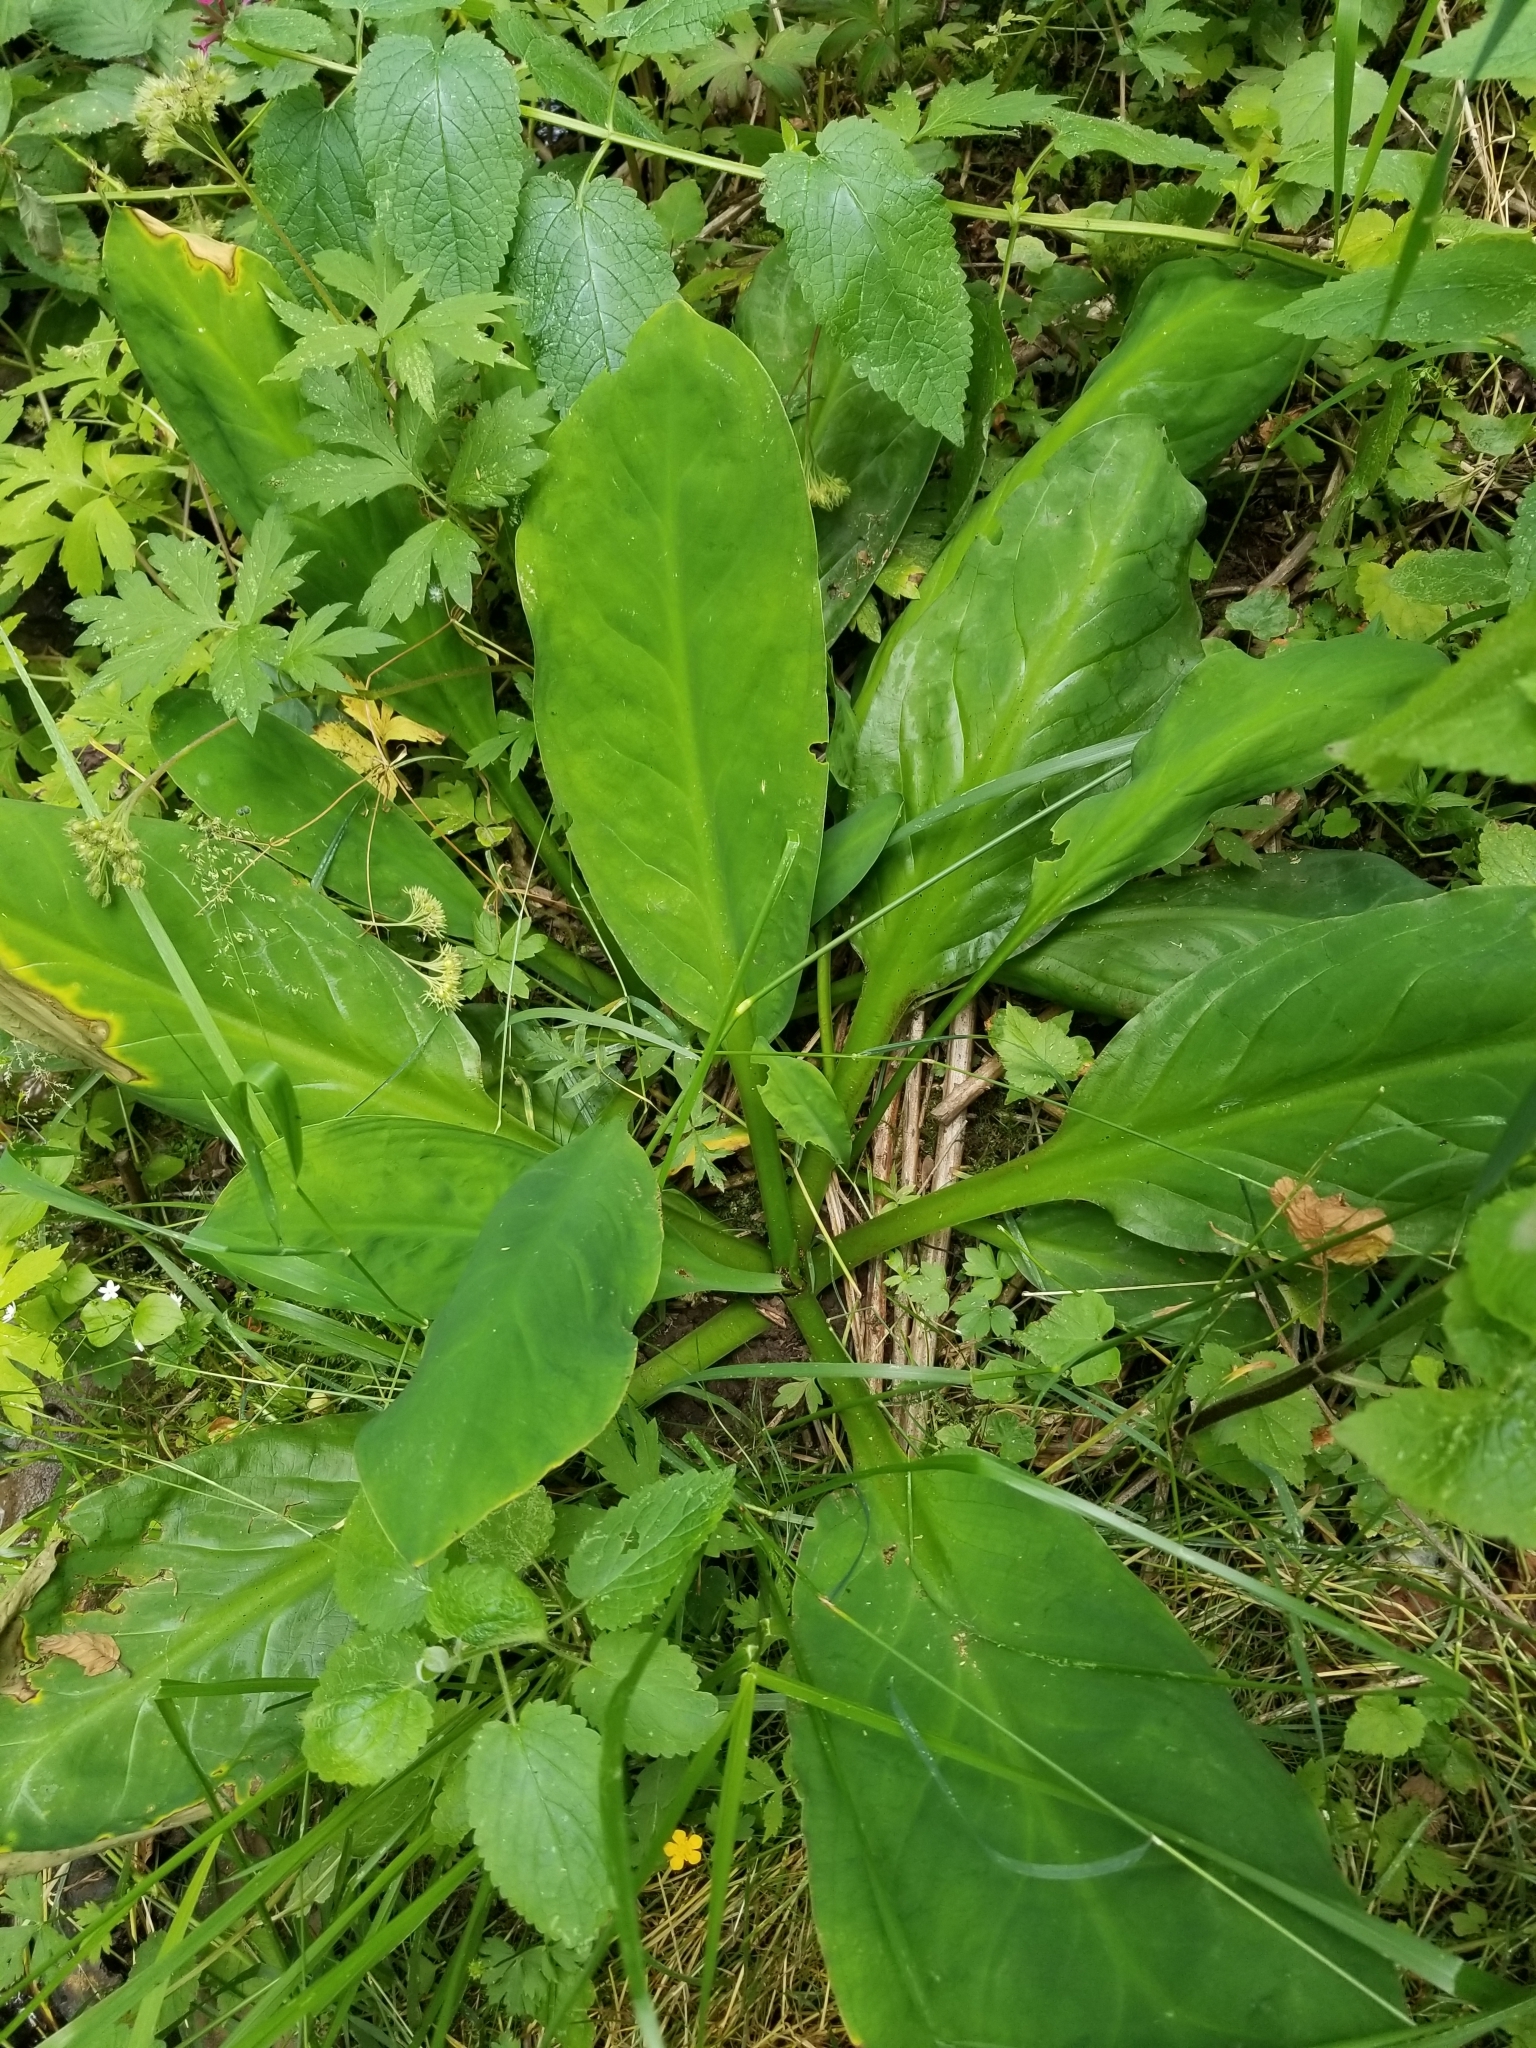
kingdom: Plantae
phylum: Tracheophyta
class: Liliopsida
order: Alismatales
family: Araceae
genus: Lysichiton
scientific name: Lysichiton americanus
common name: American skunk cabbage
